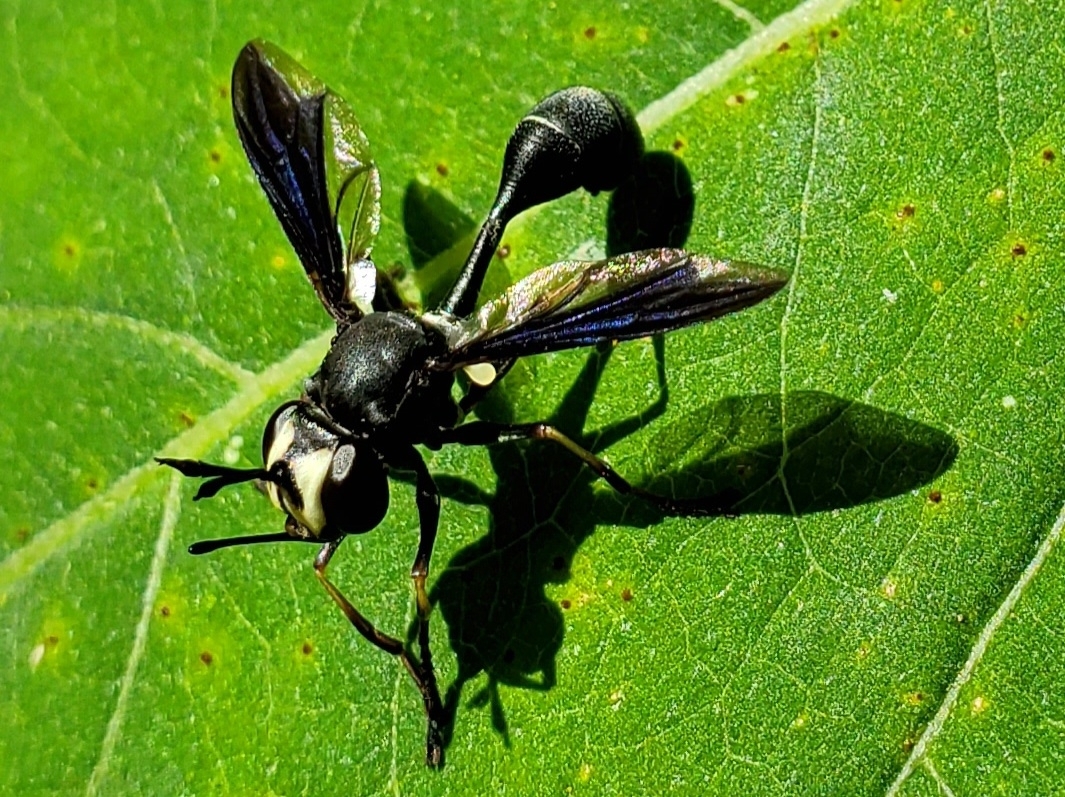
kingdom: Animalia
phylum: Arthropoda
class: Insecta
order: Diptera
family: Conopidae
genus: Physocephala
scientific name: Physocephala tibialis
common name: Common eastern physocephala
